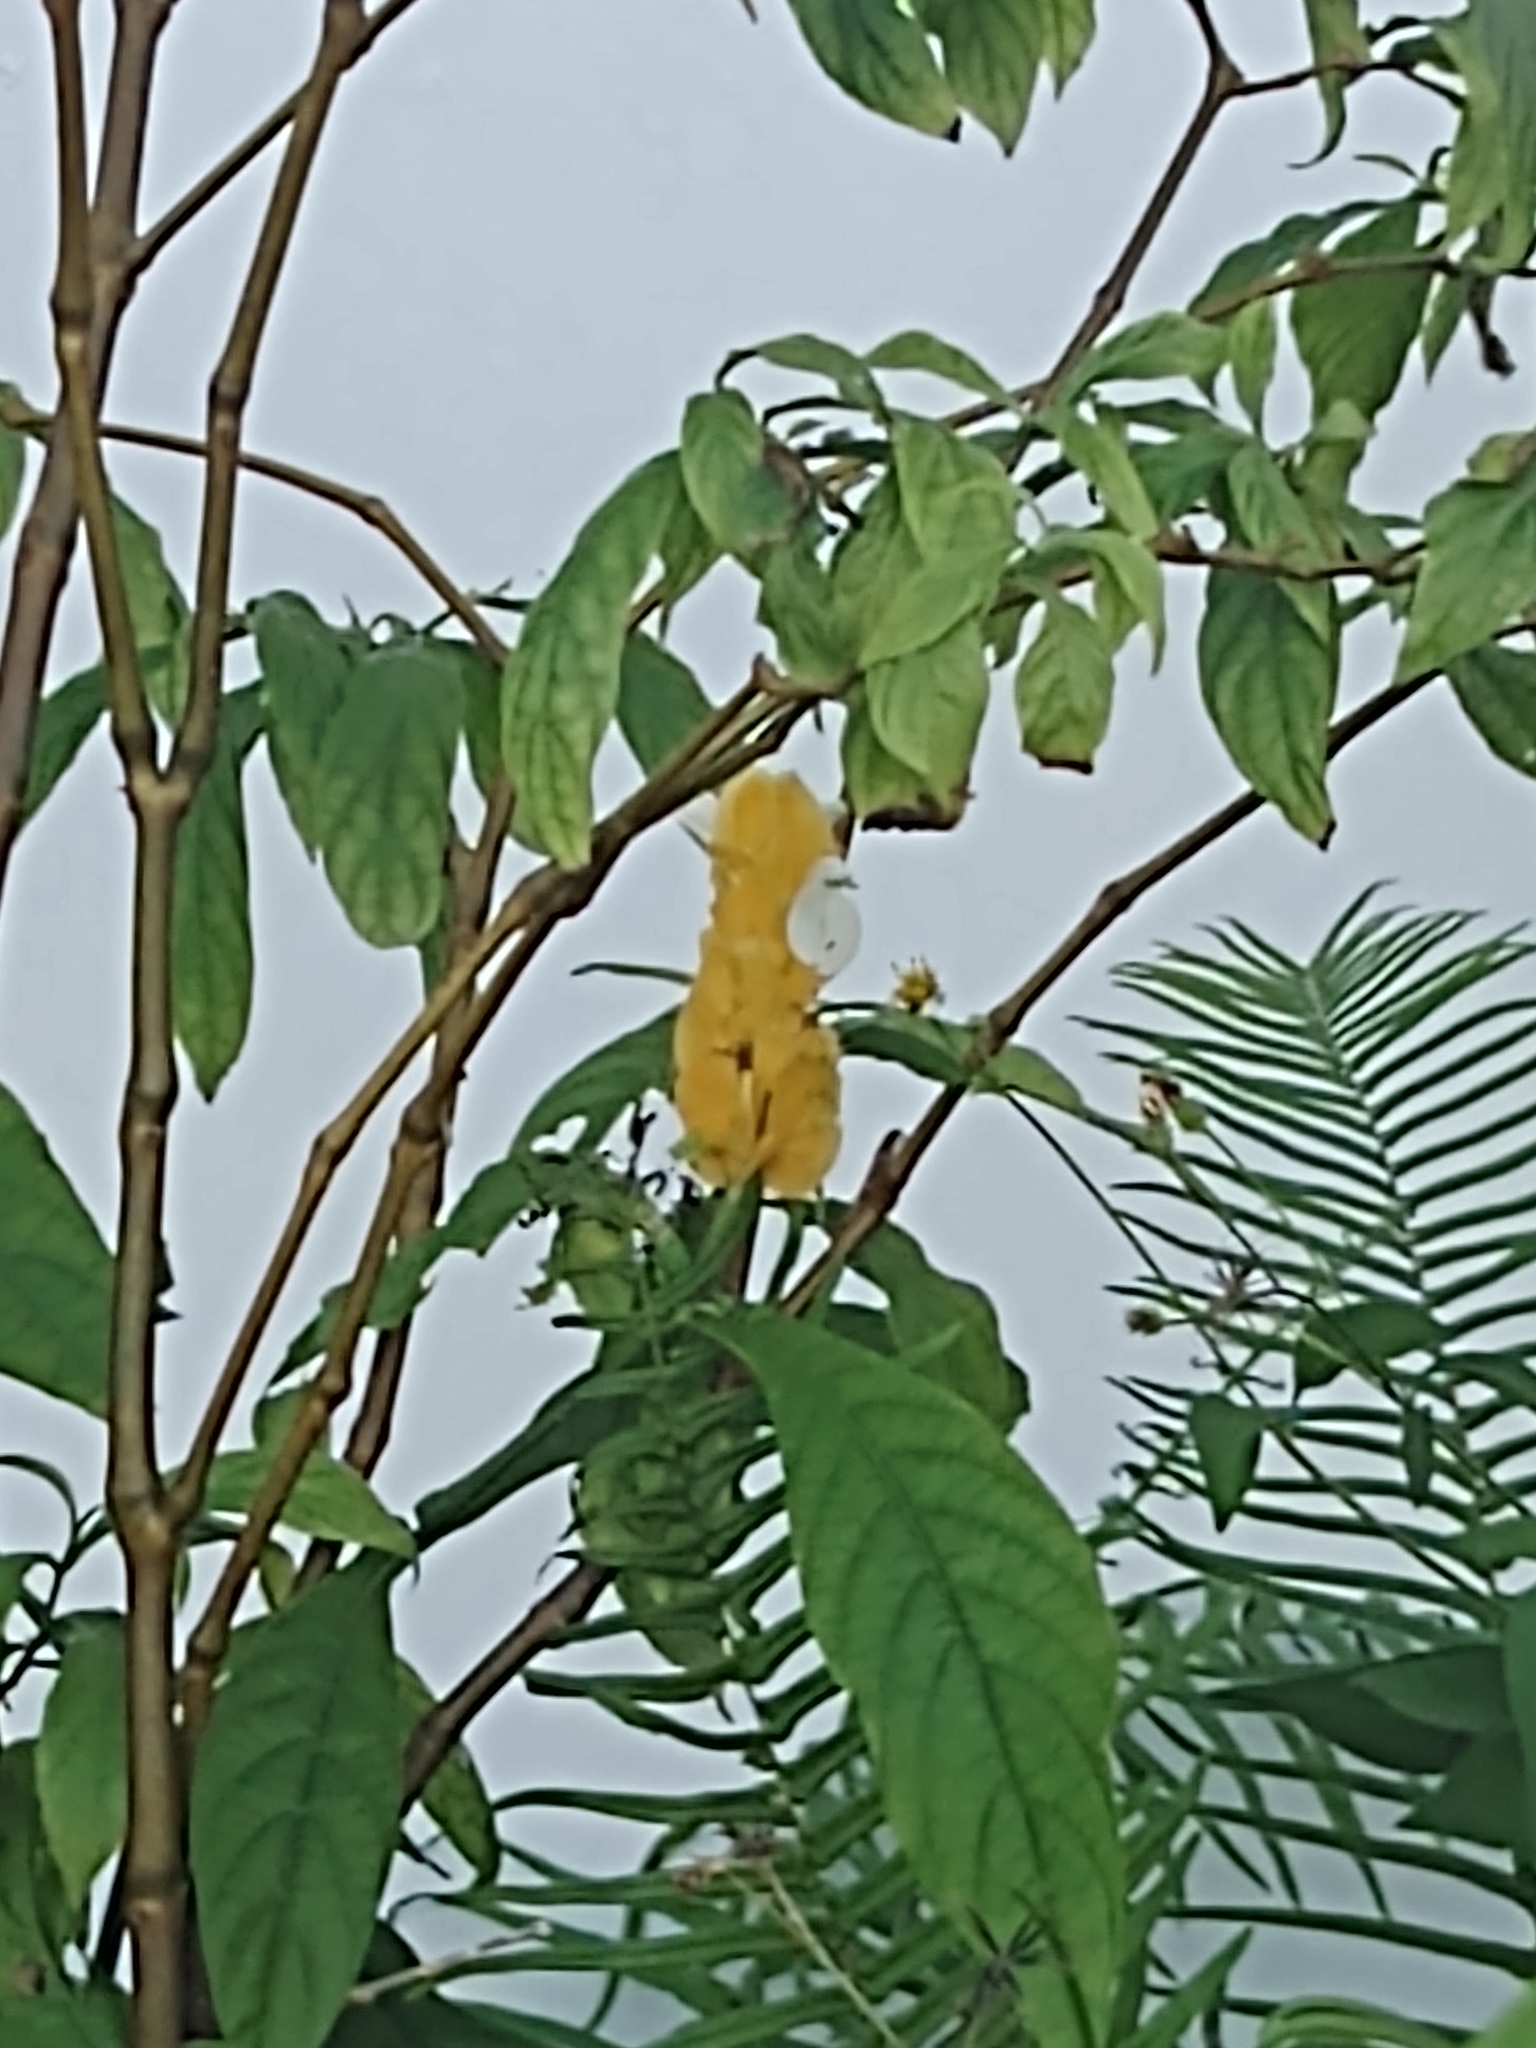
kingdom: Plantae
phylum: Tracheophyta
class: Magnoliopsida
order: Lamiales
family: Acanthaceae
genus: Pachystachys
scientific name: Pachystachys lutea
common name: Golden shrimp-plant
